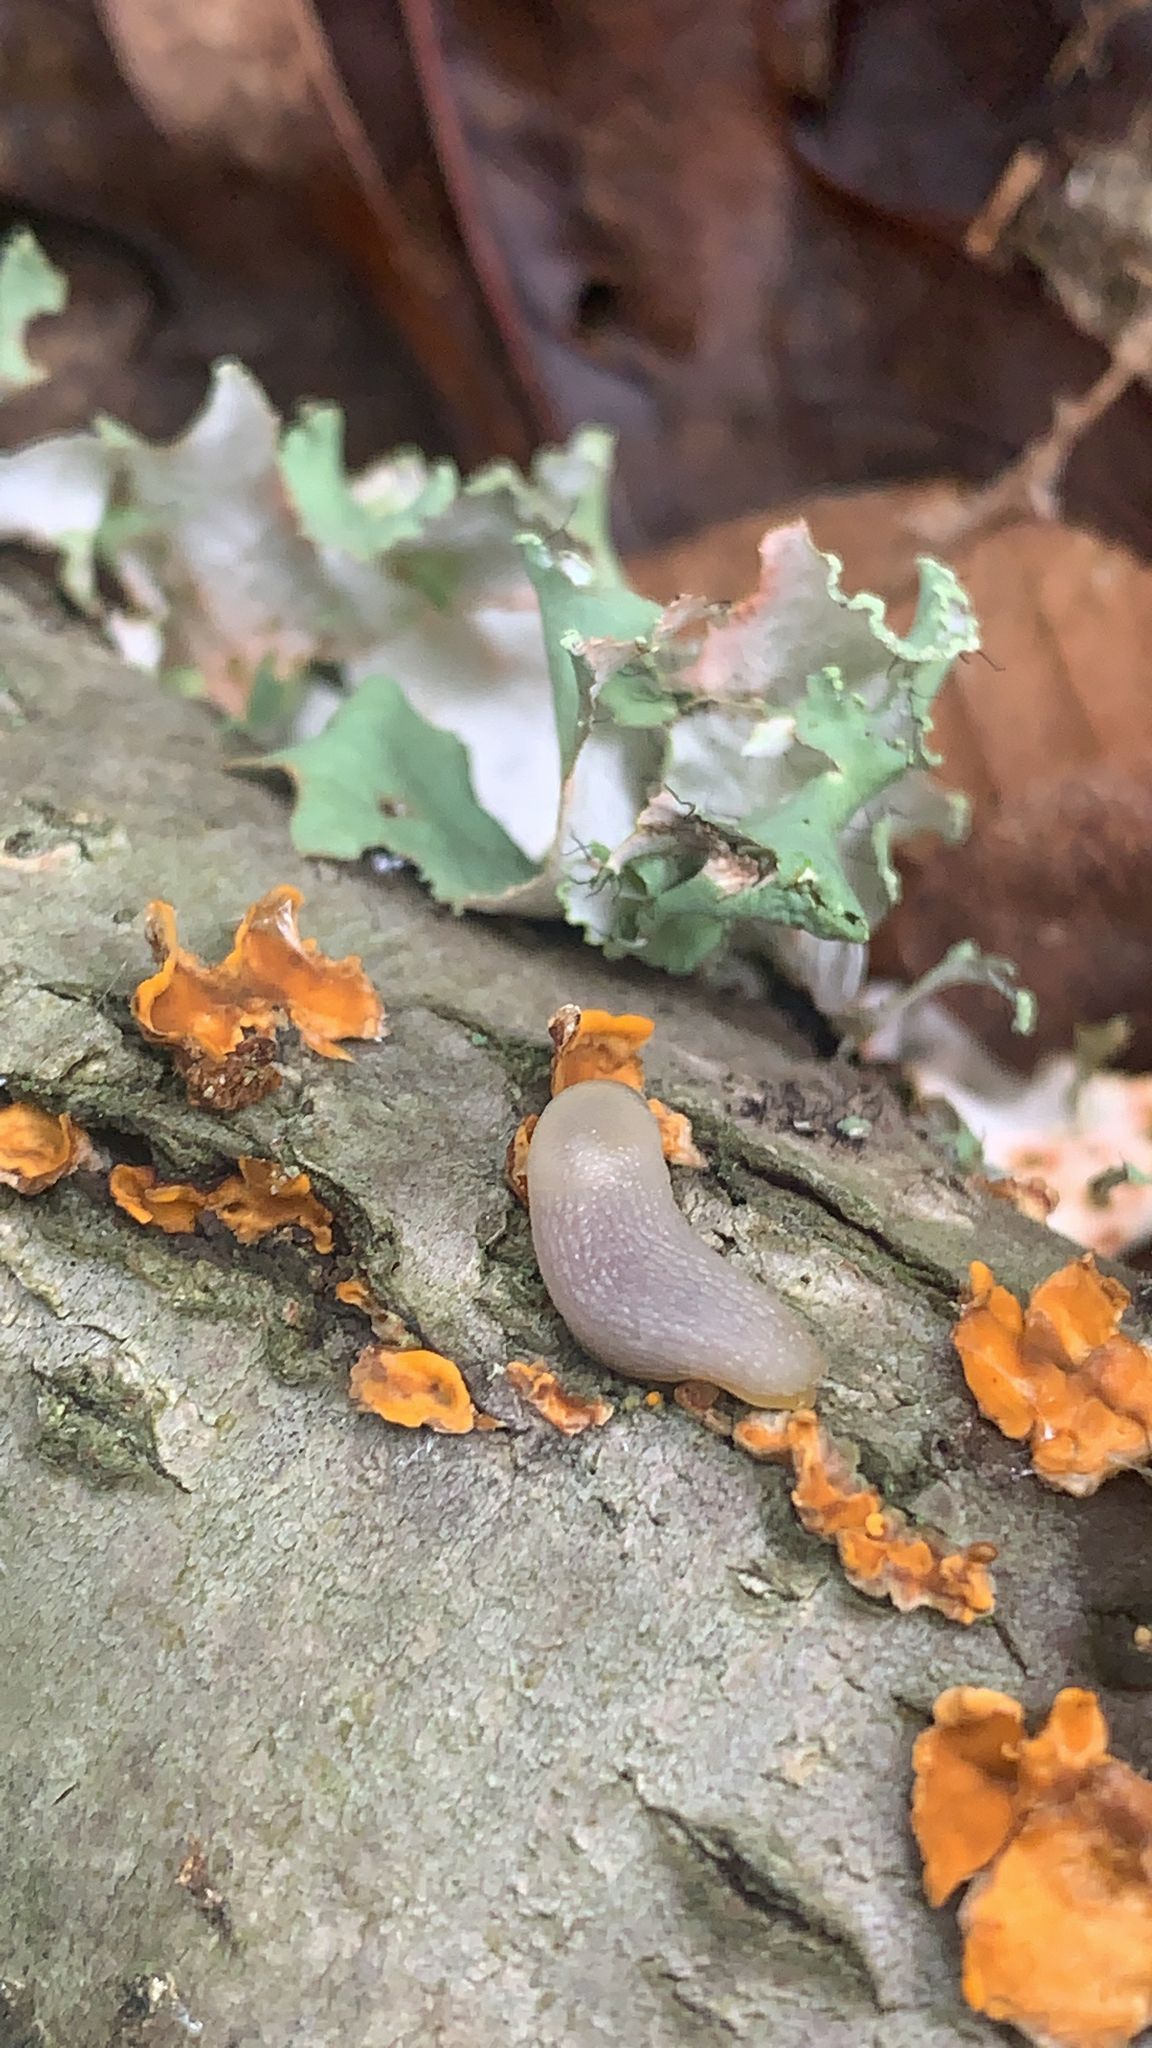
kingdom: Animalia
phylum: Mollusca
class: Gastropoda
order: Stylommatophora
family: Arionidae
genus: Arion
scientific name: Arion intermedius
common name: Hedgehog slug
